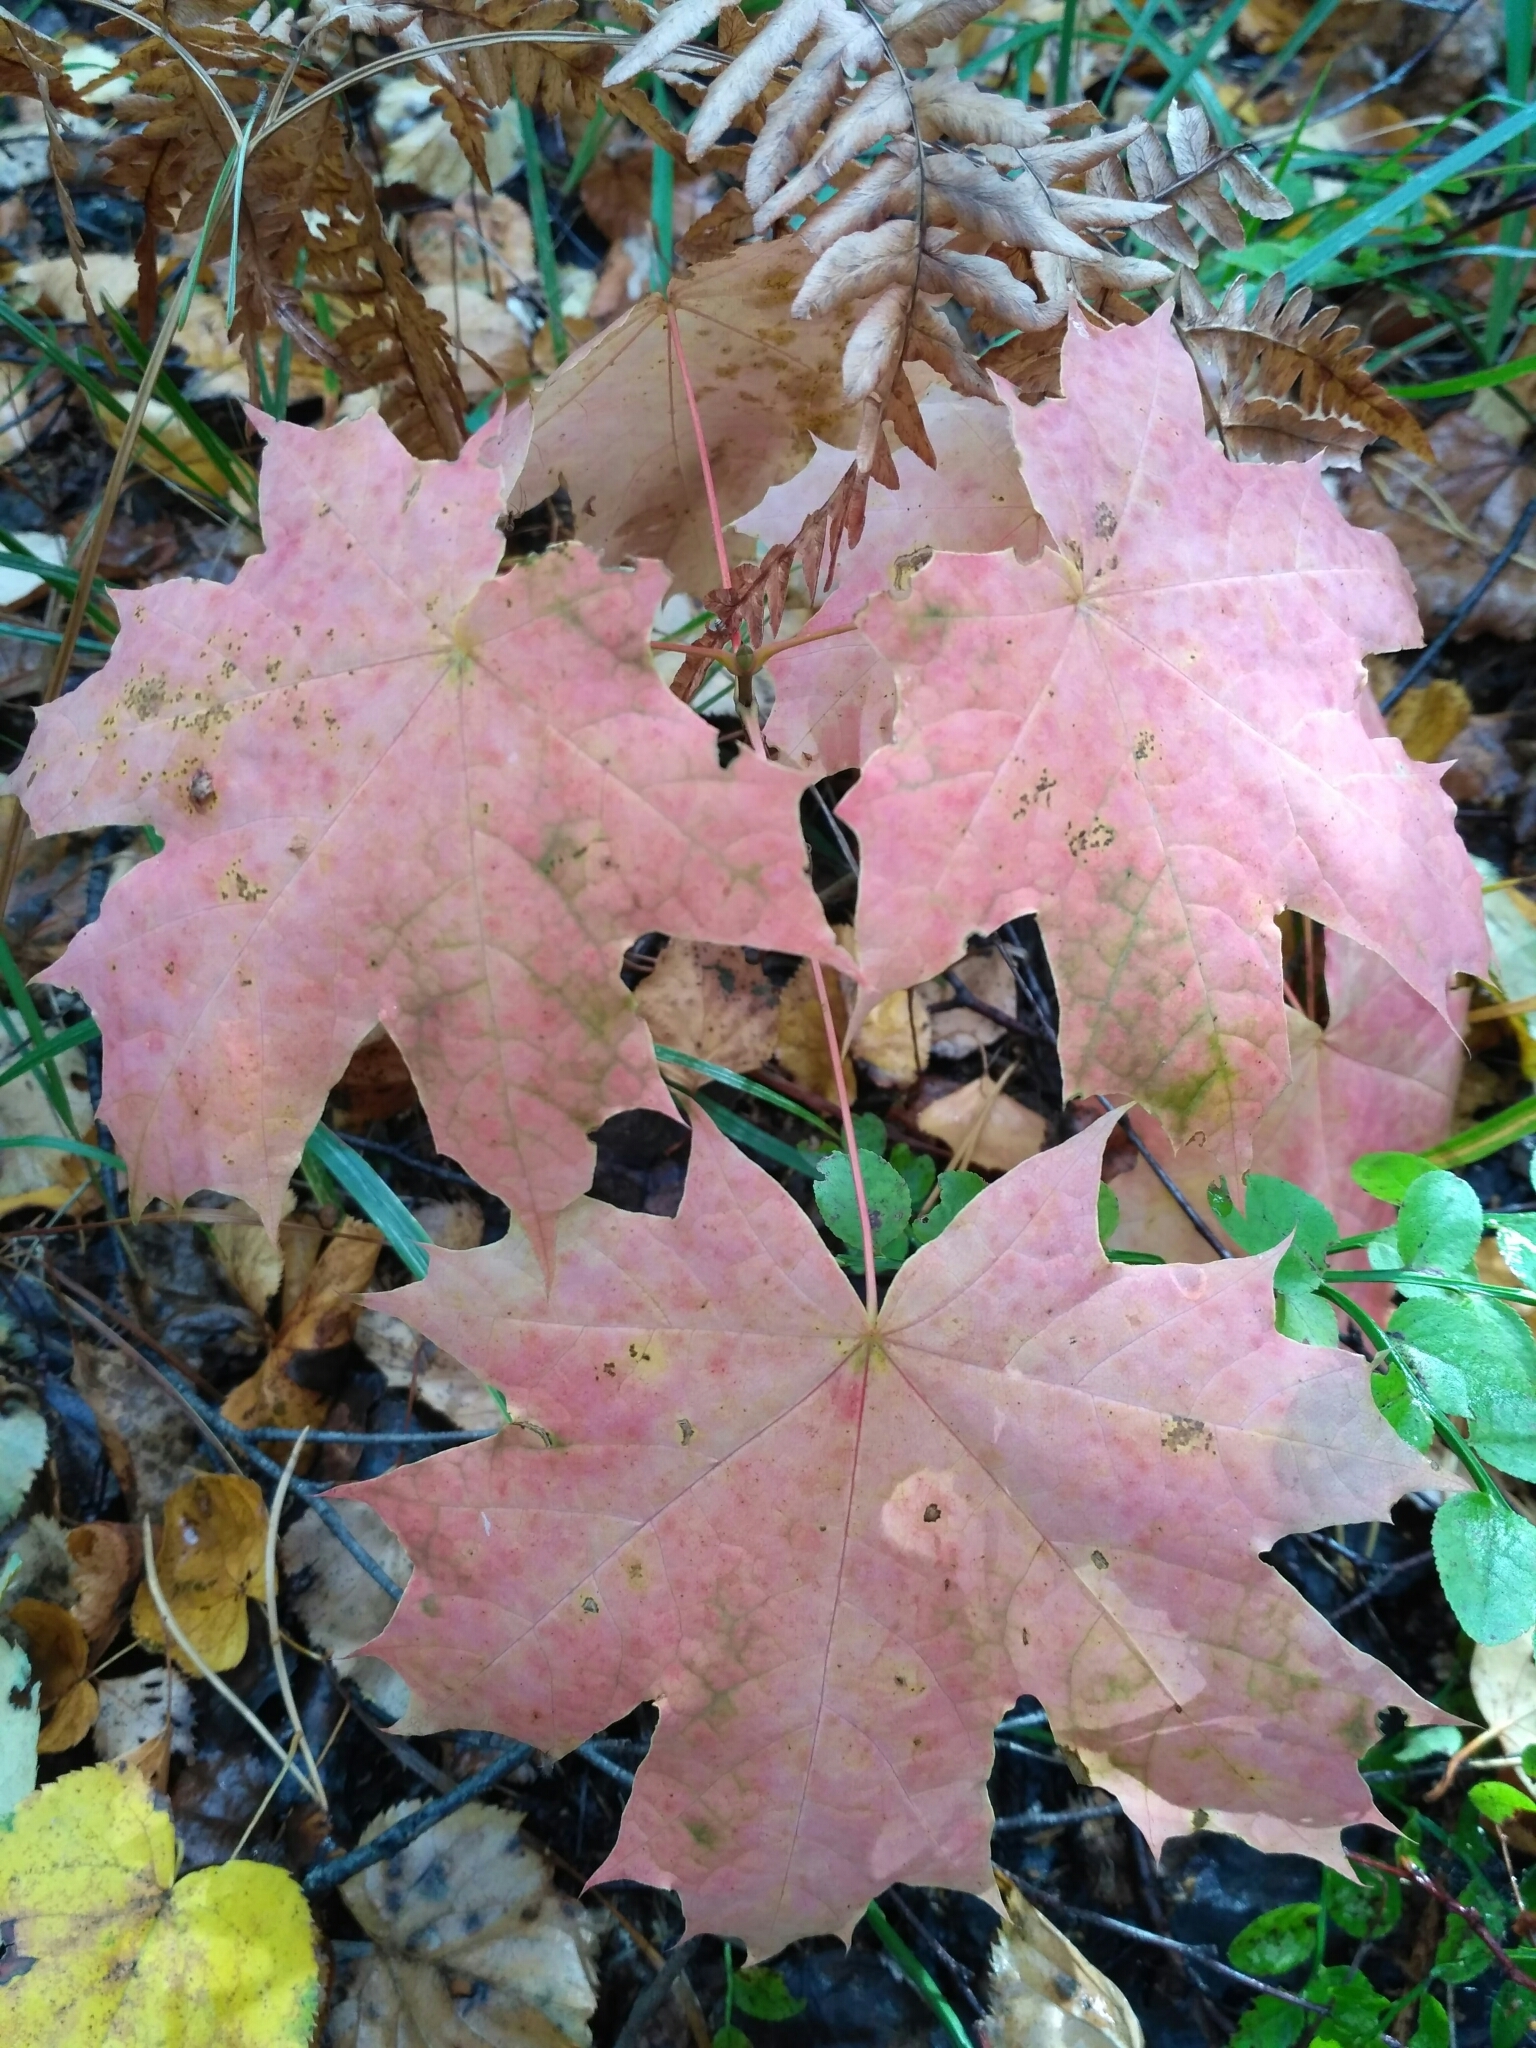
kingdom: Plantae
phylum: Tracheophyta
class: Magnoliopsida
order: Sapindales
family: Sapindaceae
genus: Acer
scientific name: Acer platanoides
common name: Norway maple
